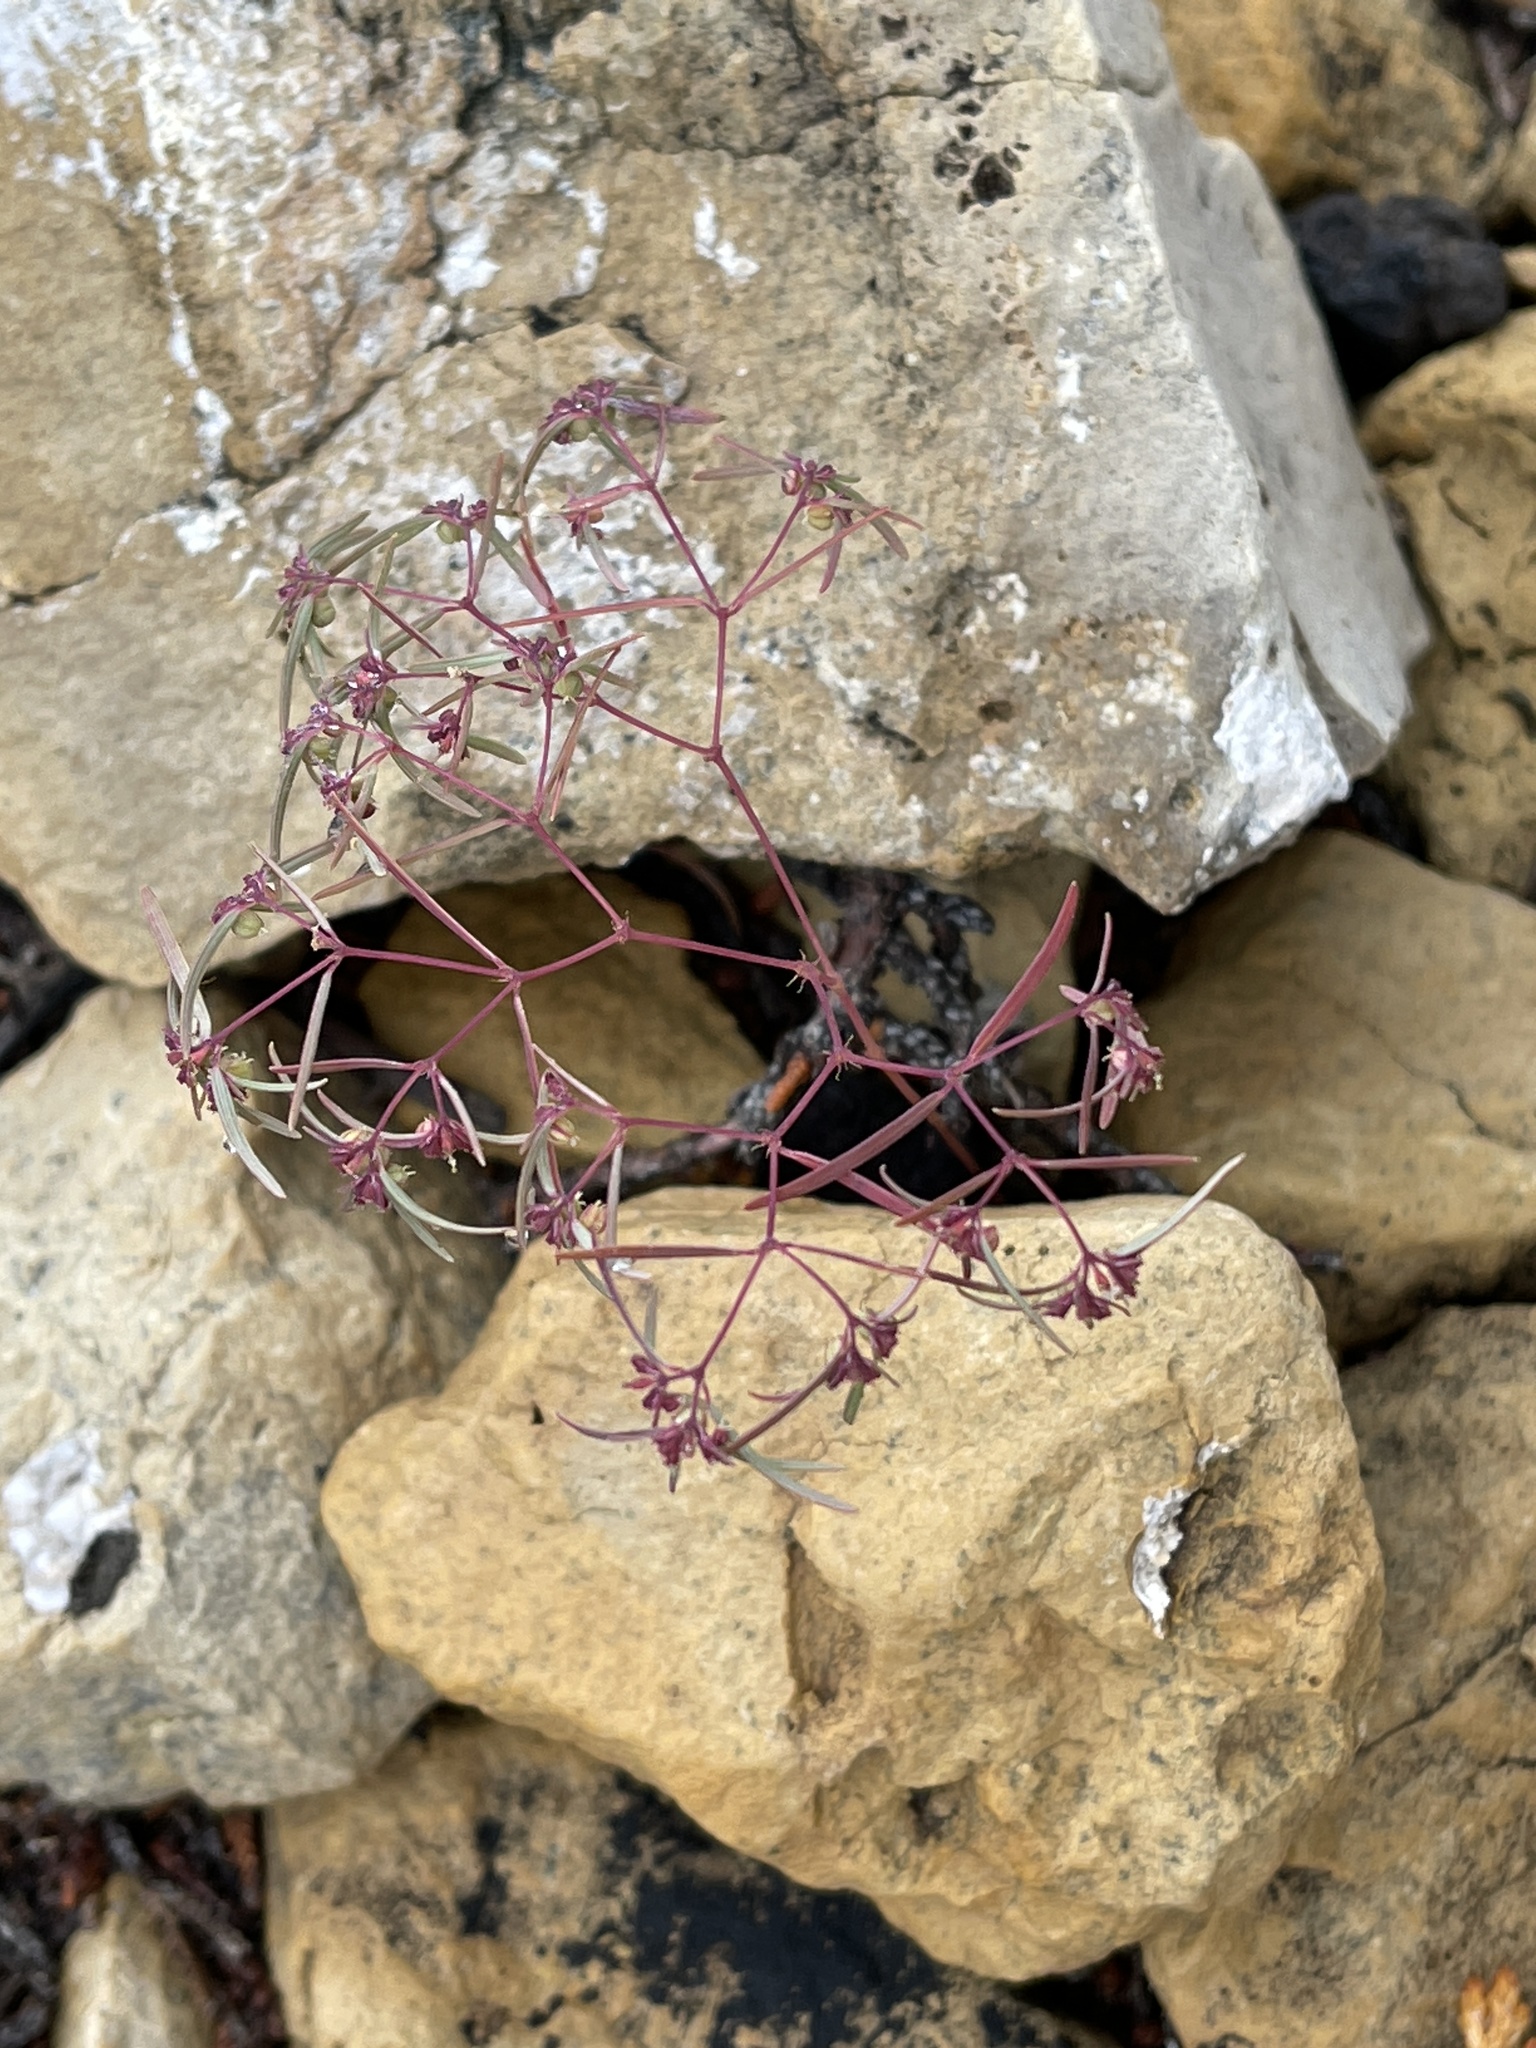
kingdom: Plantae
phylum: Tracheophyta
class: Magnoliopsida
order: Malpighiales
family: Euphorbiaceae
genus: Euphorbia
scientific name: Euphorbia revoluta
